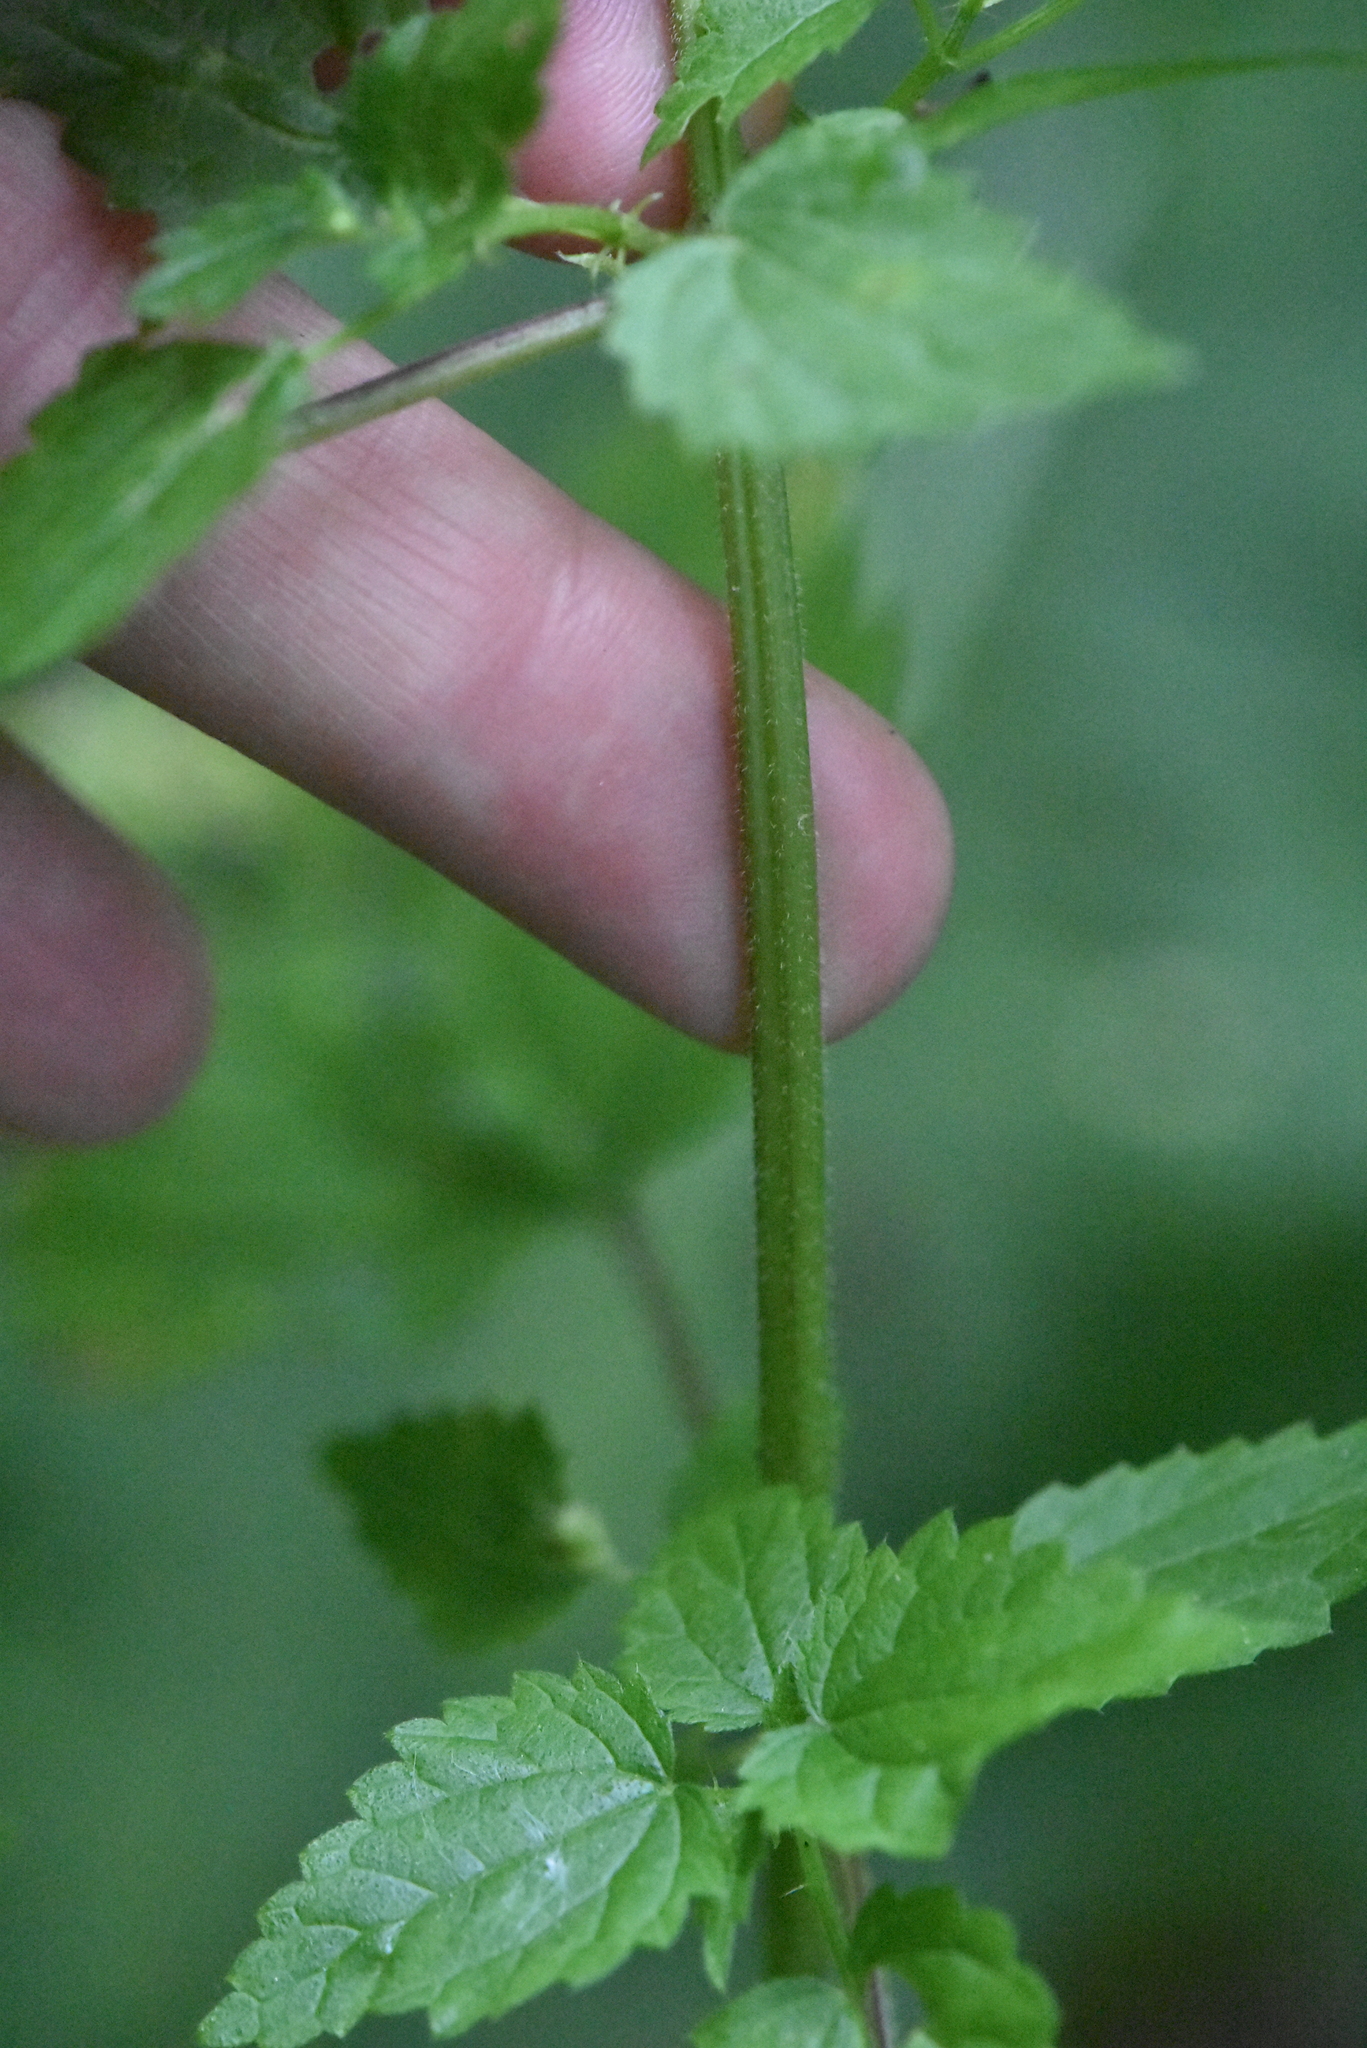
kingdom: Plantae
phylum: Tracheophyta
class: Magnoliopsida
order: Rosales
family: Urticaceae
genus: Urtica
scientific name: Urtica galeopsifolia
